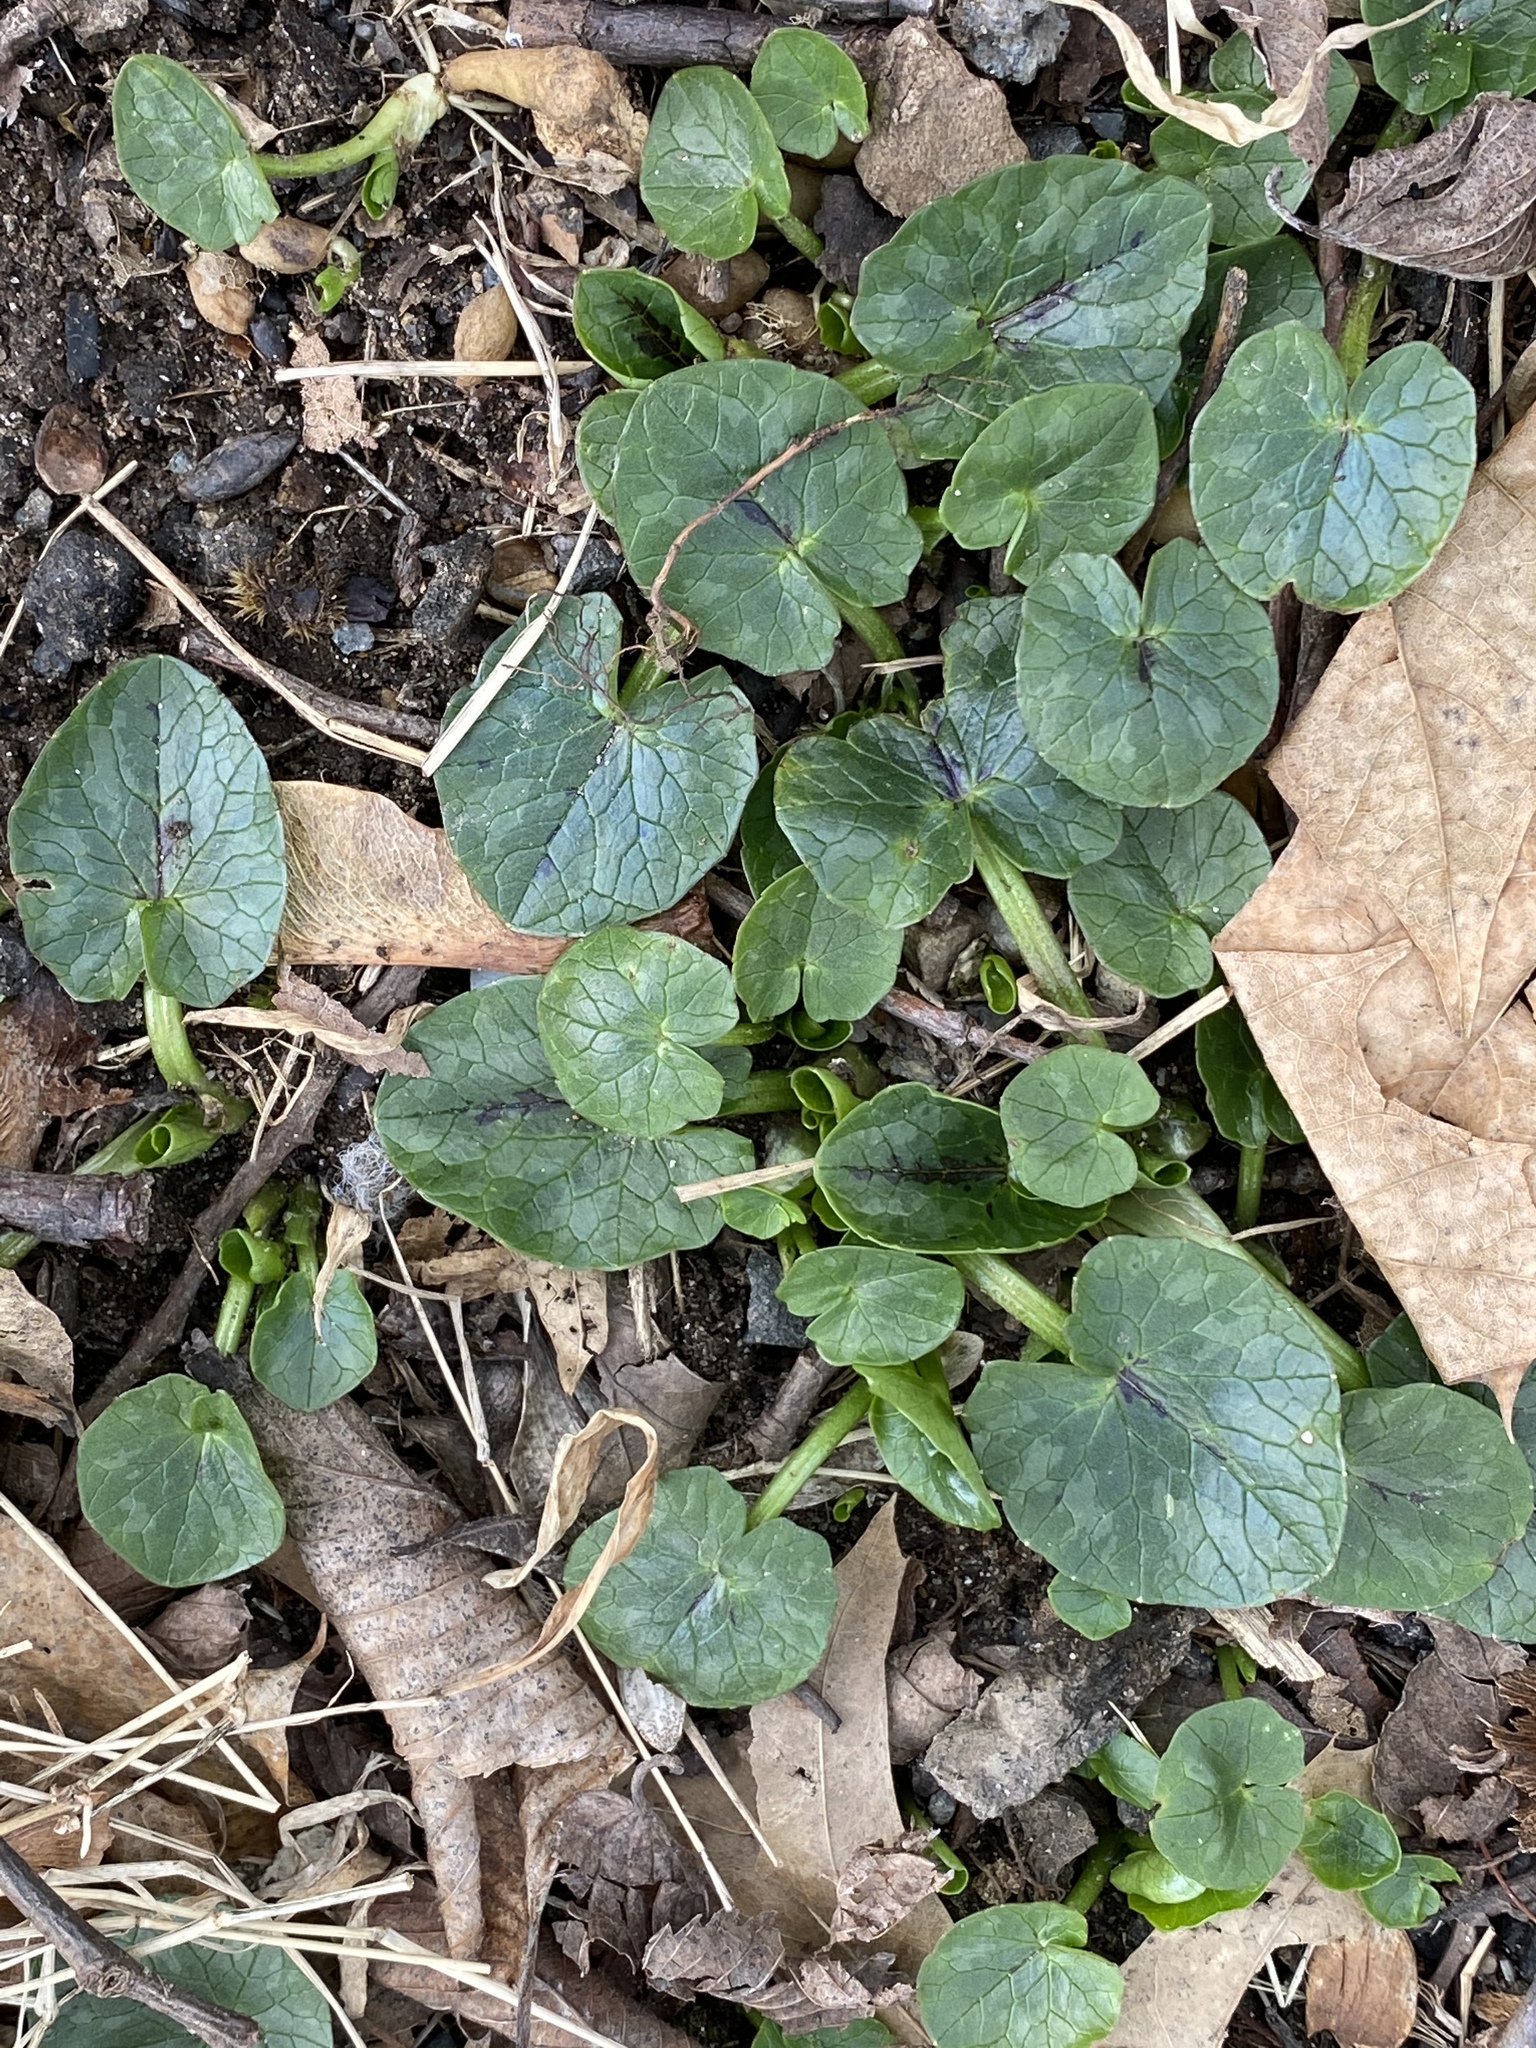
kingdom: Plantae
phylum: Tracheophyta
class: Magnoliopsida
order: Ranunculales
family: Ranunculaceae
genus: Ficaria
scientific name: Ficaria verna
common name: Lesser celandine
